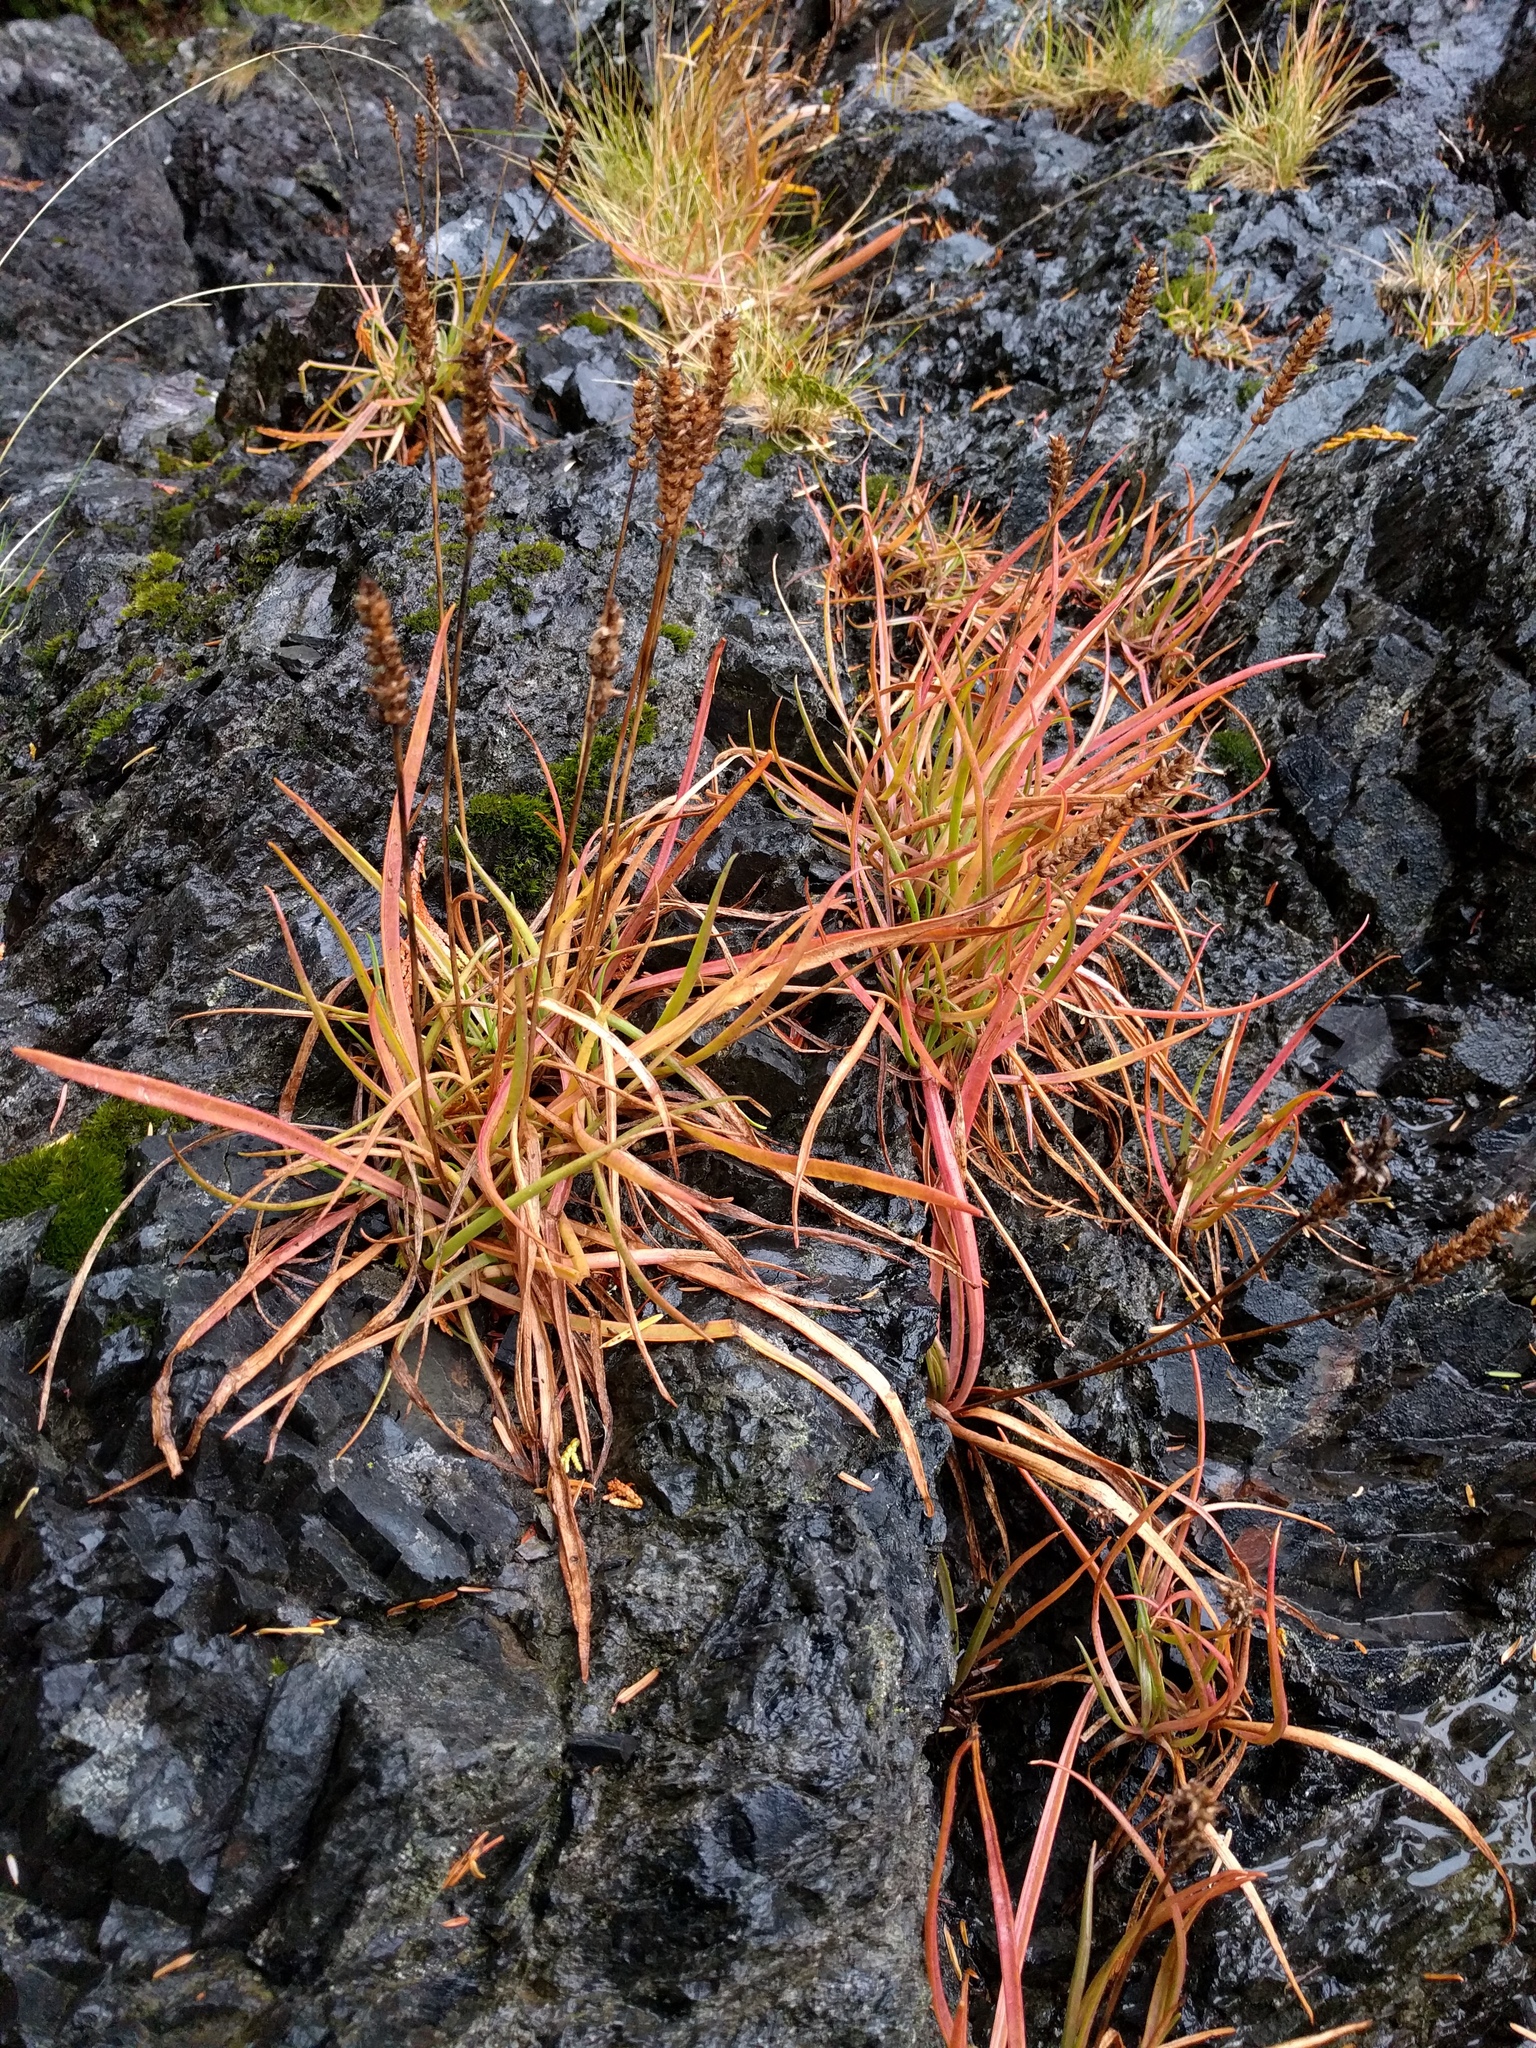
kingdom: Plantae
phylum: Tracheophyta
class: Magnoliopsida
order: Lamiales
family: Plantaginaceae
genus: Plantago
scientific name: Plantago maritima
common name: Sea plantain
